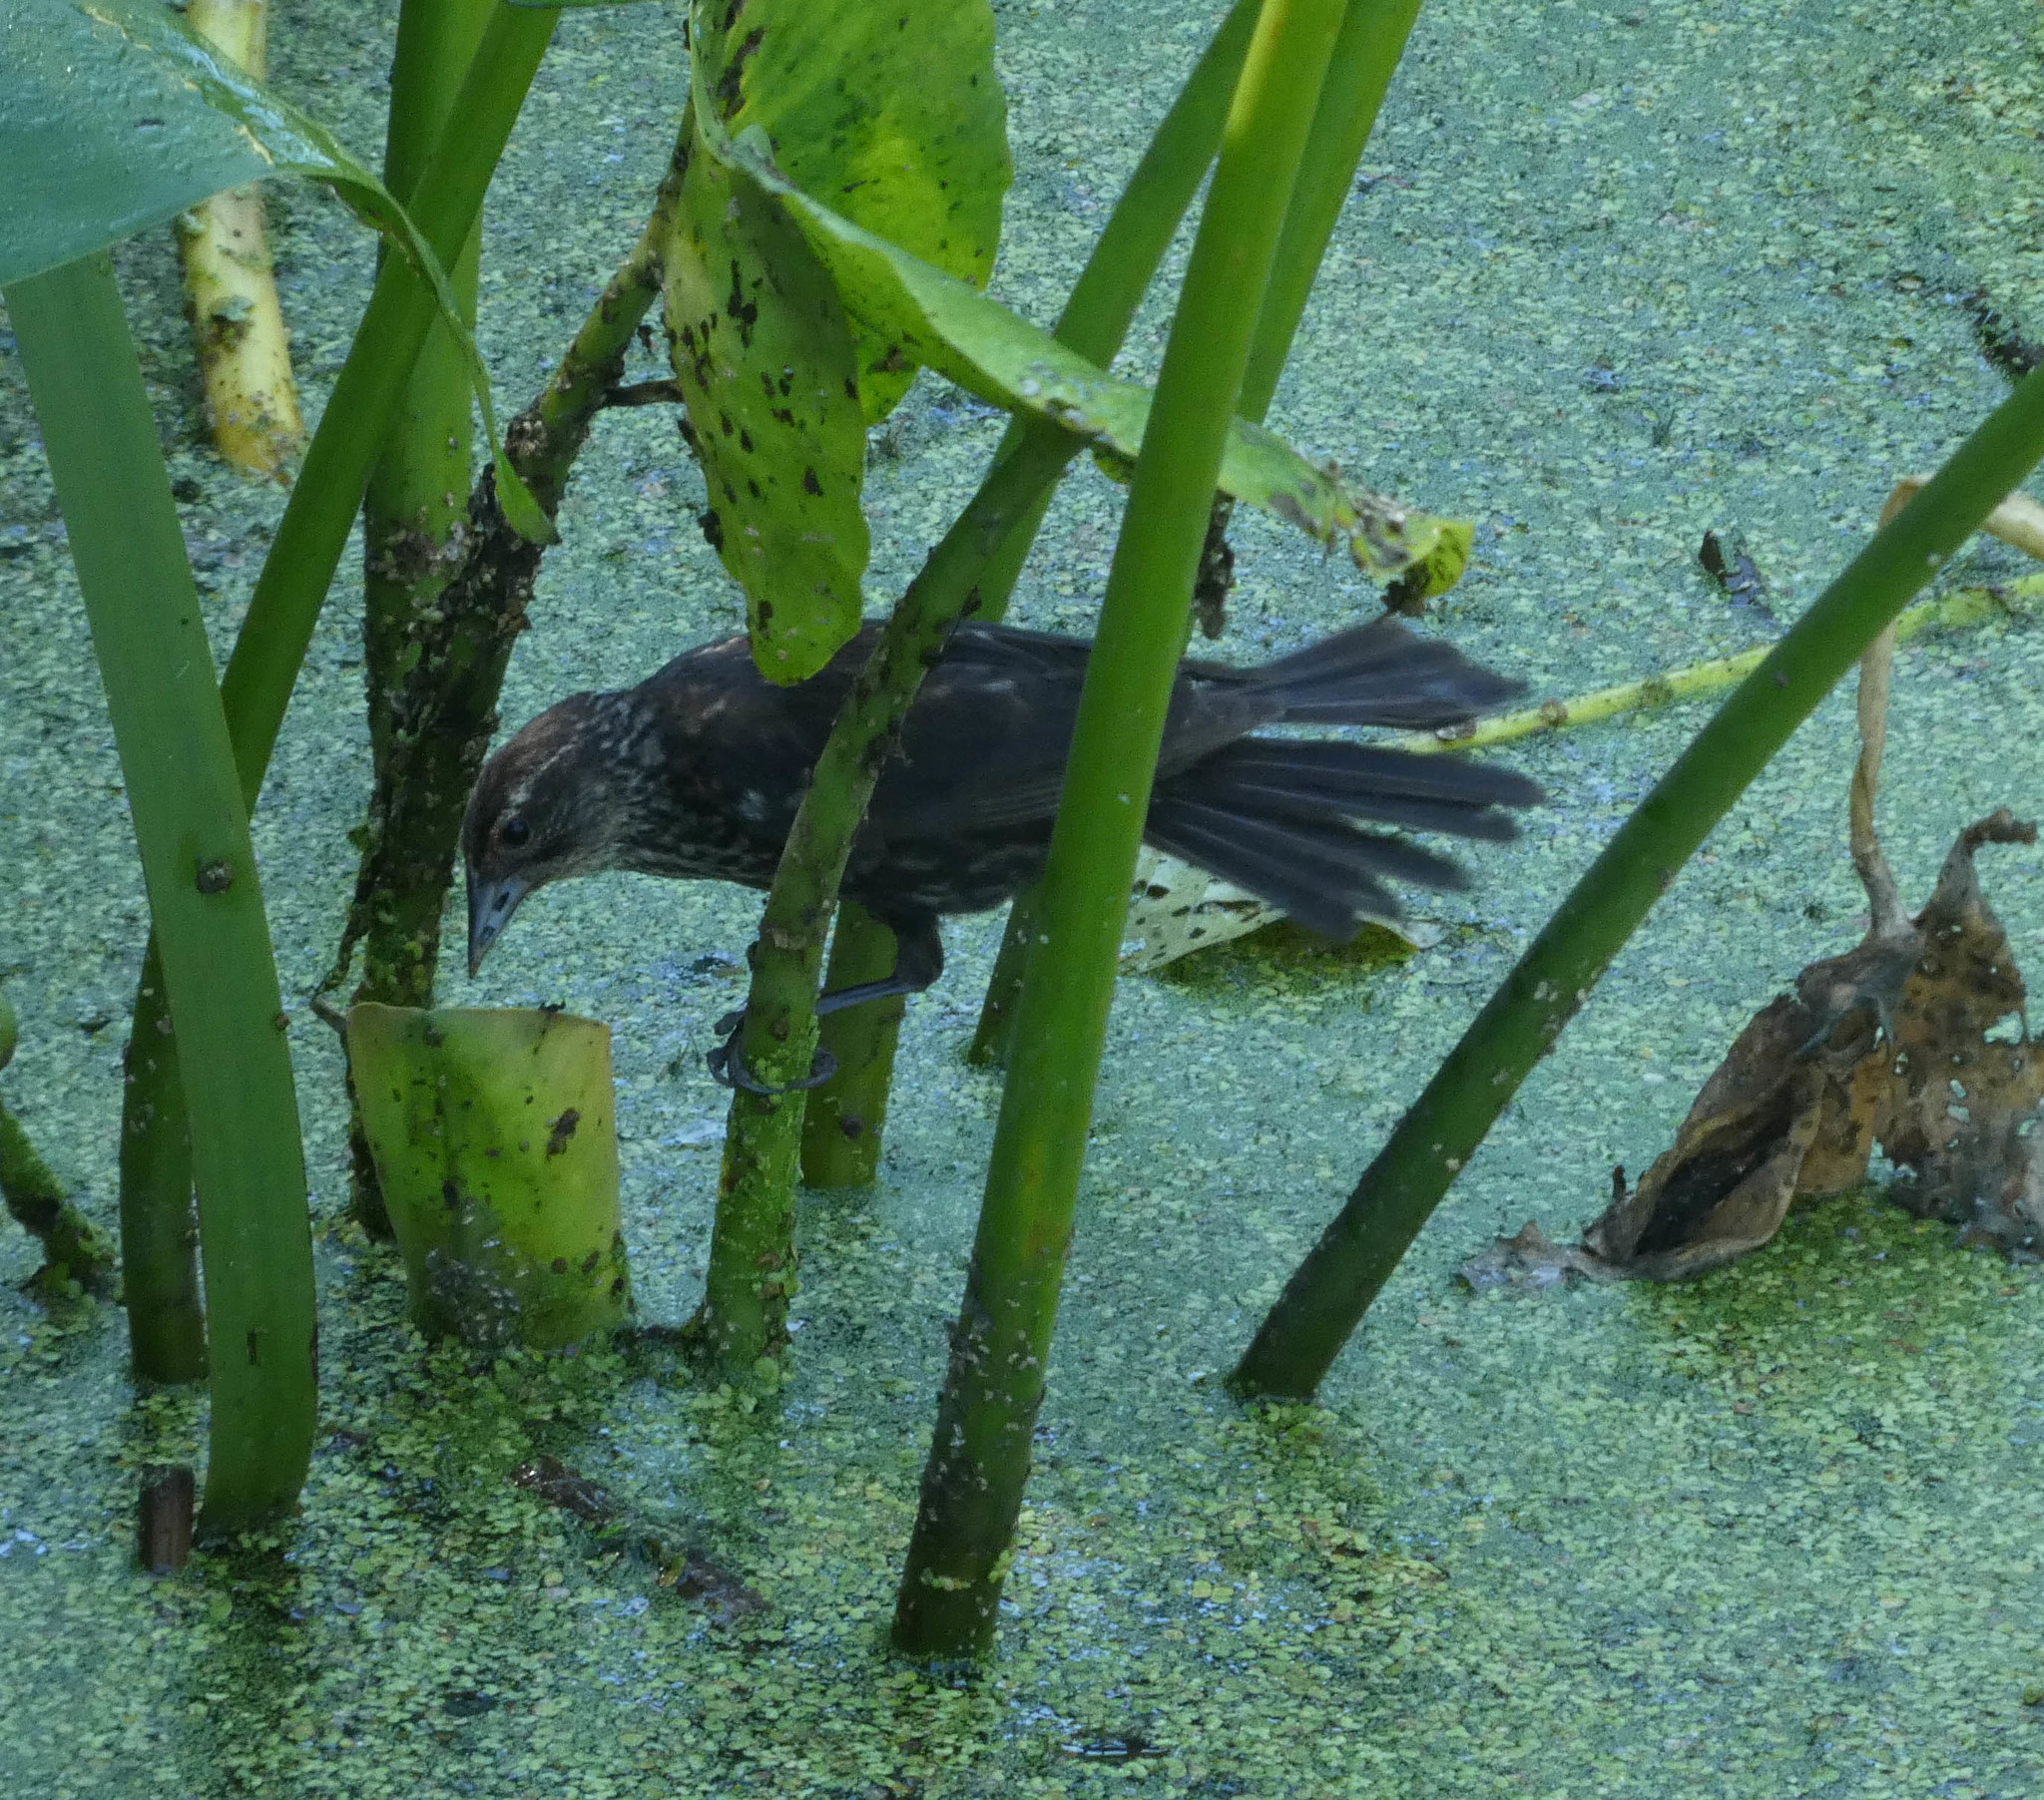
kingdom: Animalia
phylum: Chordata
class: Aves
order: Passeriformes
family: Icteridae
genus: Agelaius
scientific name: Agelaius phoeniceus
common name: Red-winged blackbird
